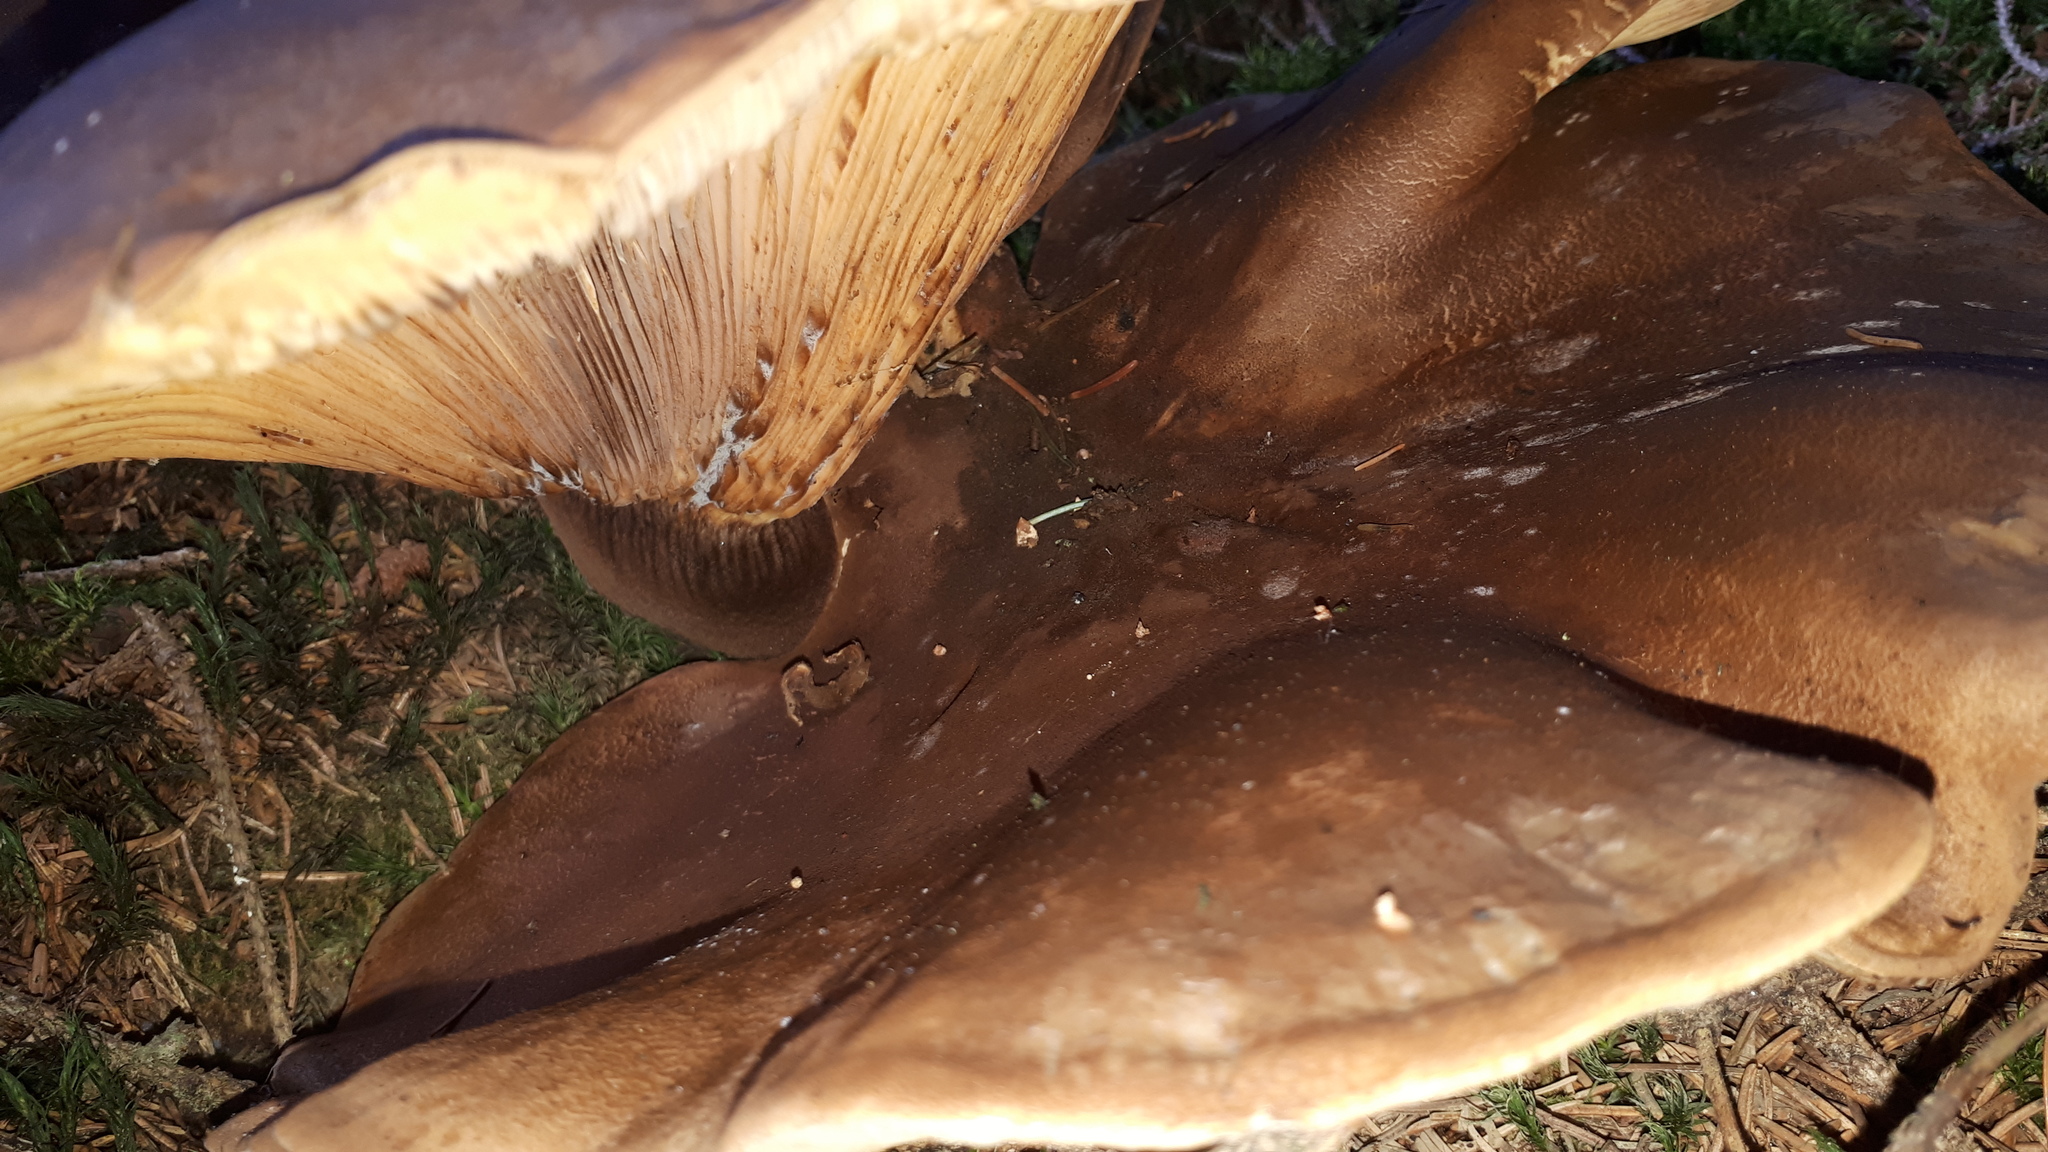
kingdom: Fungi
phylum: Basidiomycota
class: Agaricomycetes
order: Boletales
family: Tapinellaceae
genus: Tapinella
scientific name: Tapinella atrotomentosa
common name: Velvet rollrim
